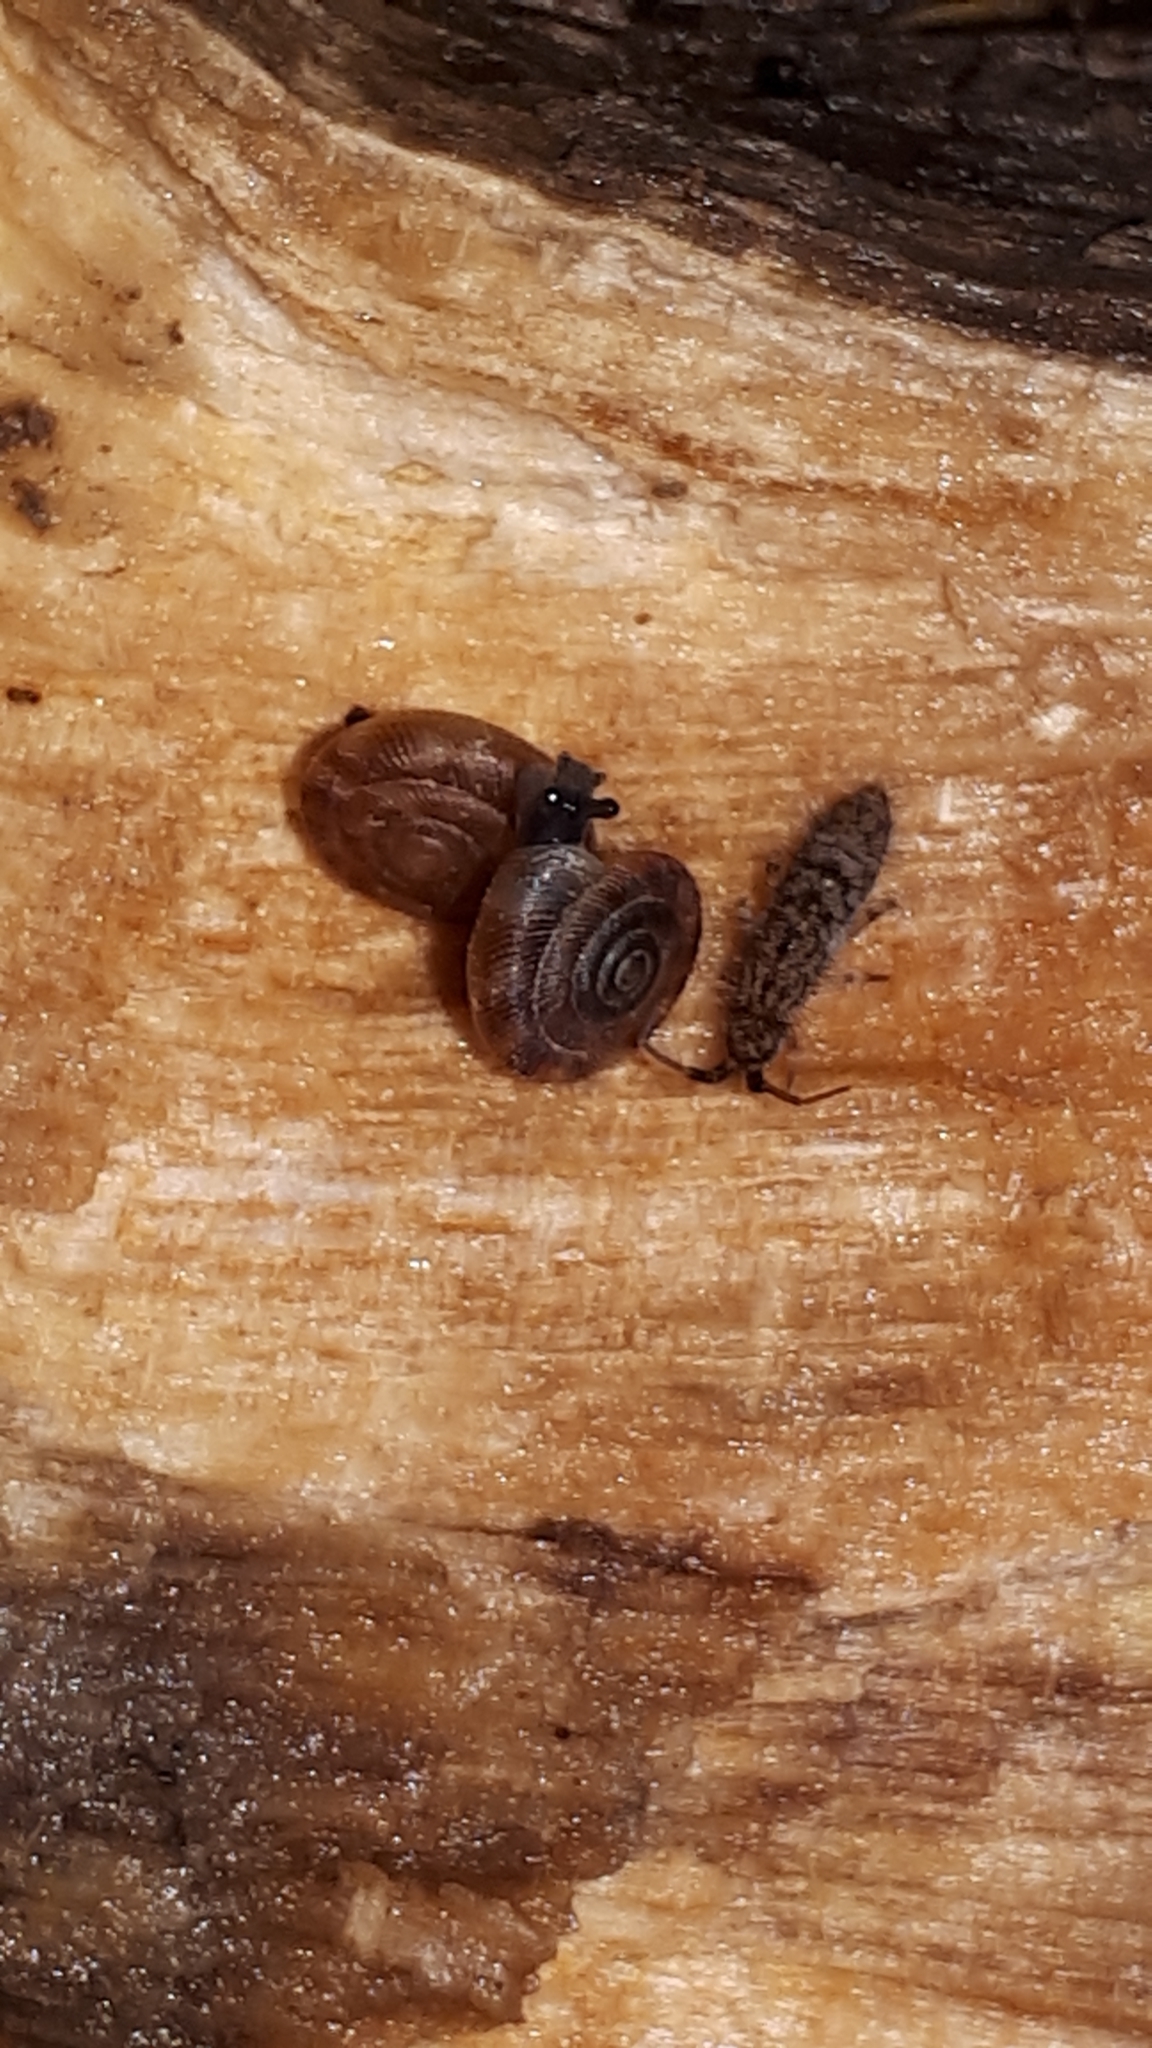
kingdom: Animalia
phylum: Arthropoda
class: Collembola
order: Entomobryomorpha
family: Orchesellidae
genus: Orchesella
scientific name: Orchesella villosa
